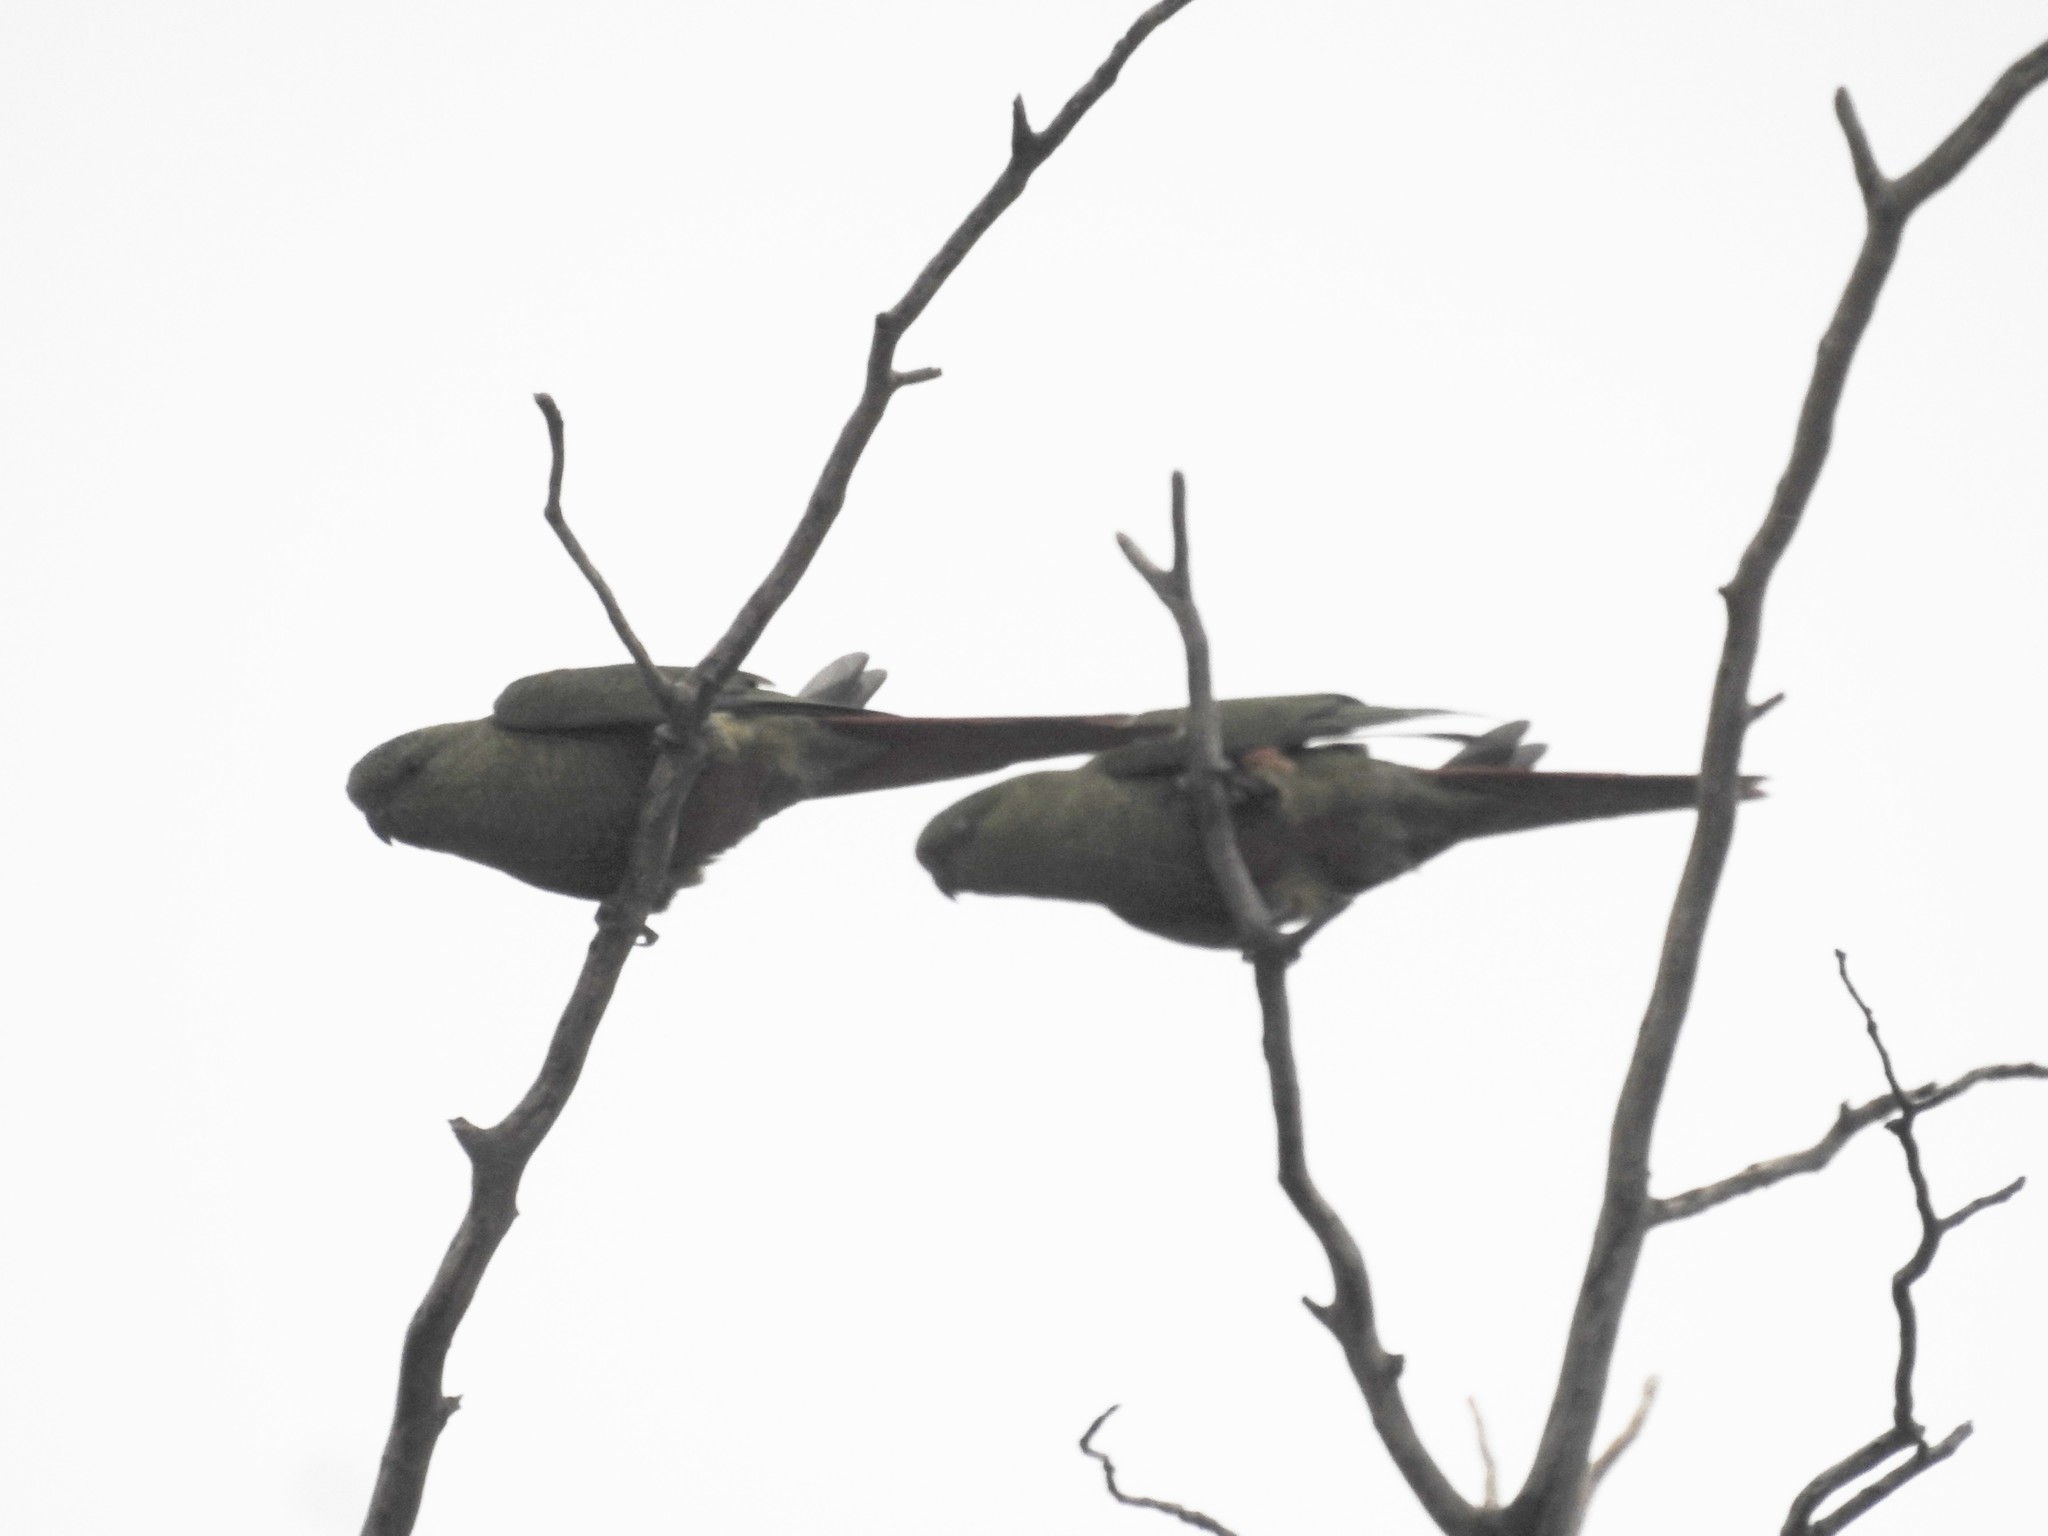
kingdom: Animalia
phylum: Chordata
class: Aves
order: Psittaciformes
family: Psittacidae
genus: Enicognathus
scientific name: Enicognathus ferrugineus
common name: Austral parakeet
